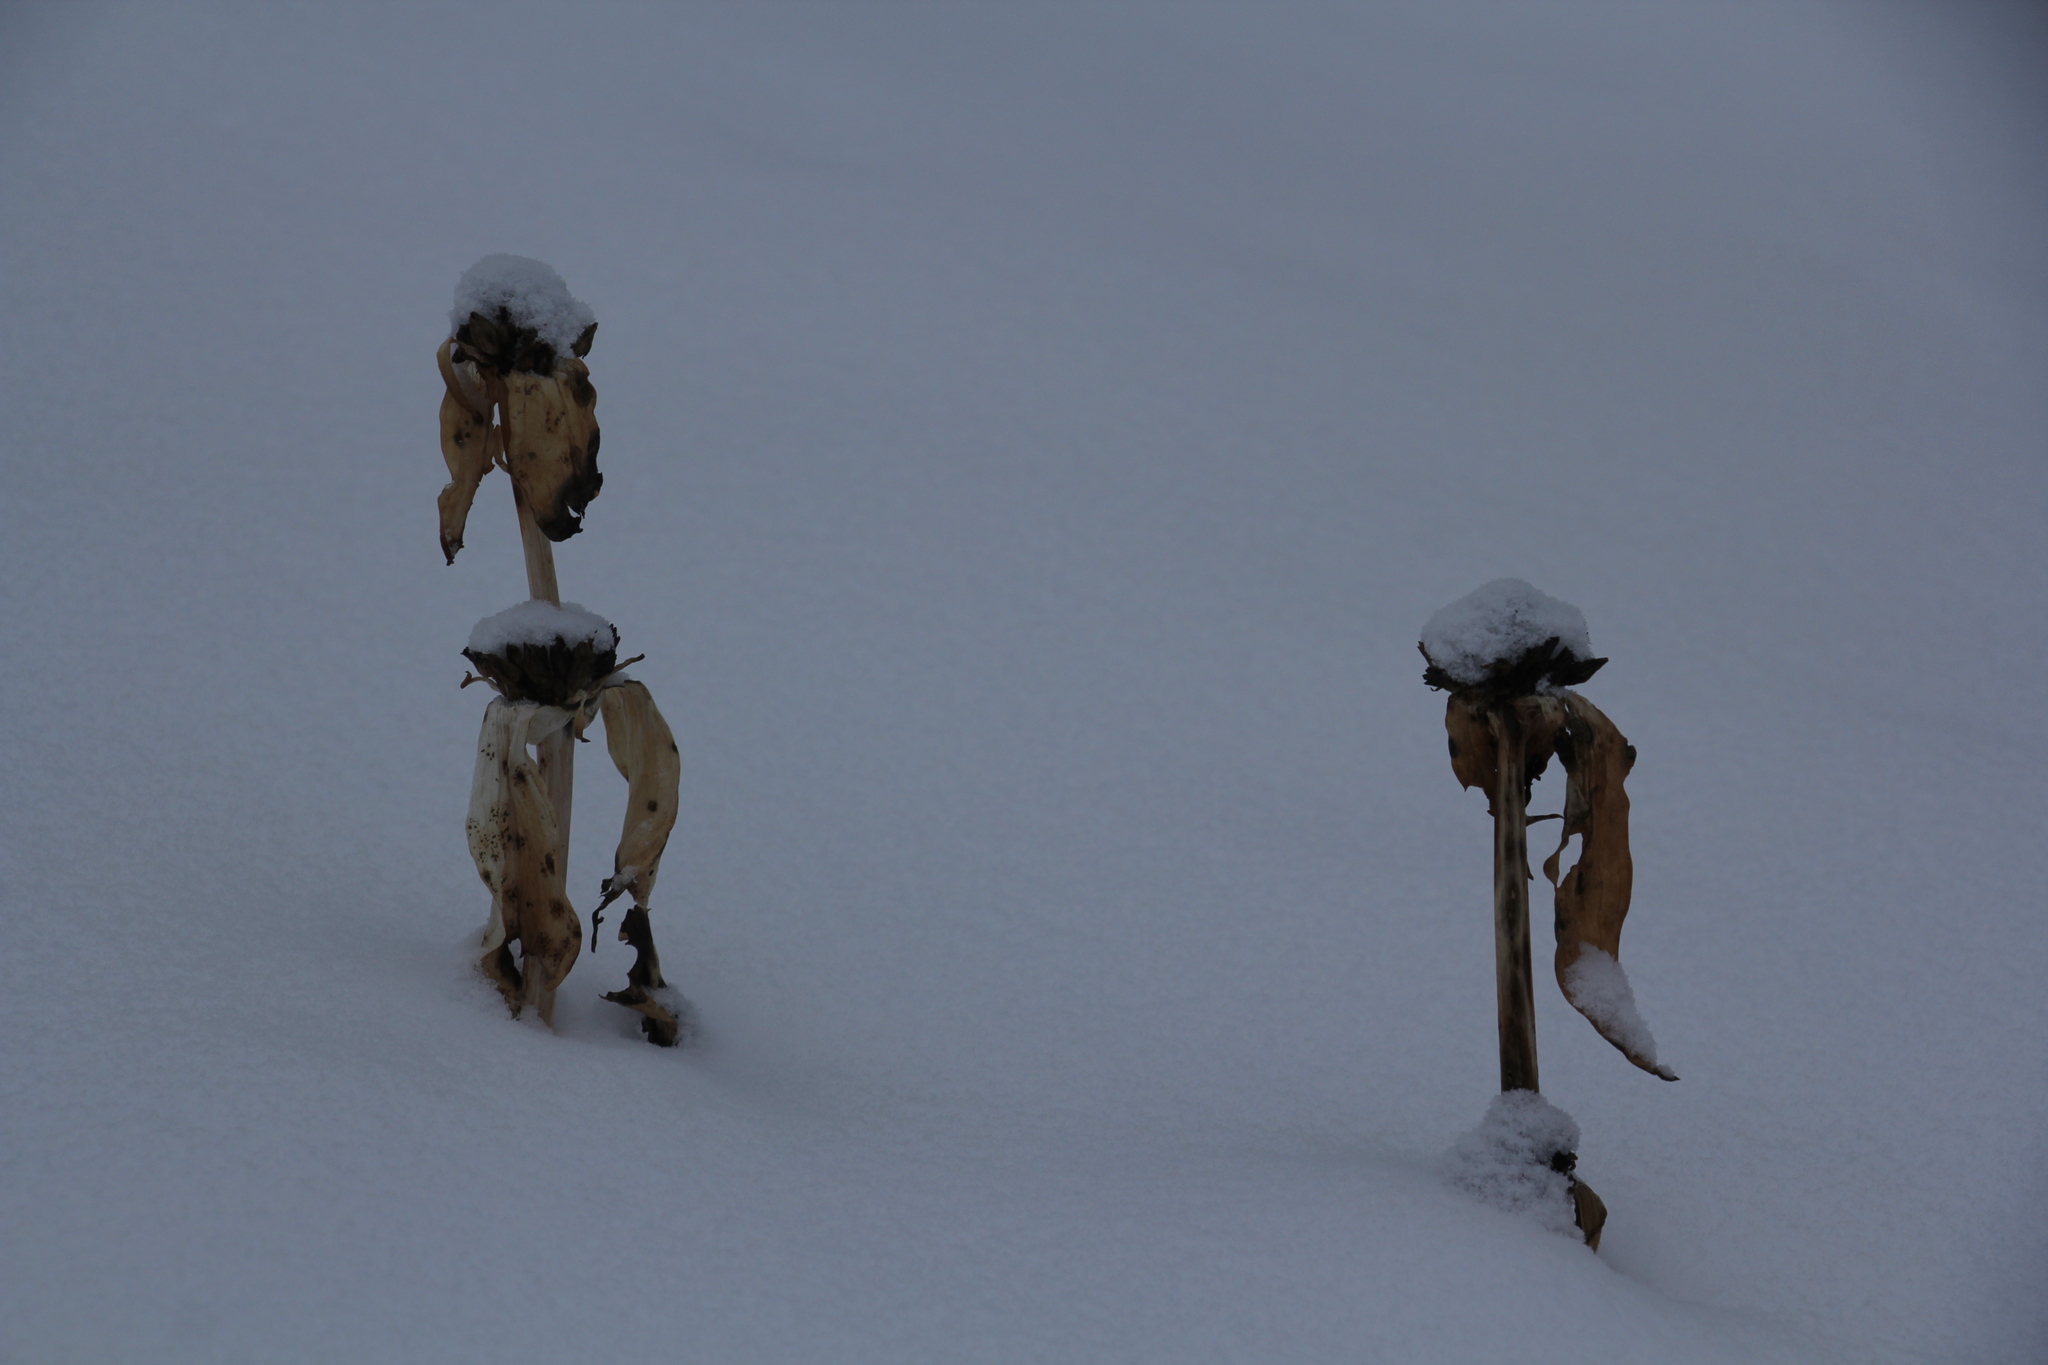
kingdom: Plantae
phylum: Tracheophyta
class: Magnoliopsida
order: Gentianales
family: Gentianaceae
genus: Gentiana
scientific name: Gentiana macrophylla
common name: Large-leaf gentian
